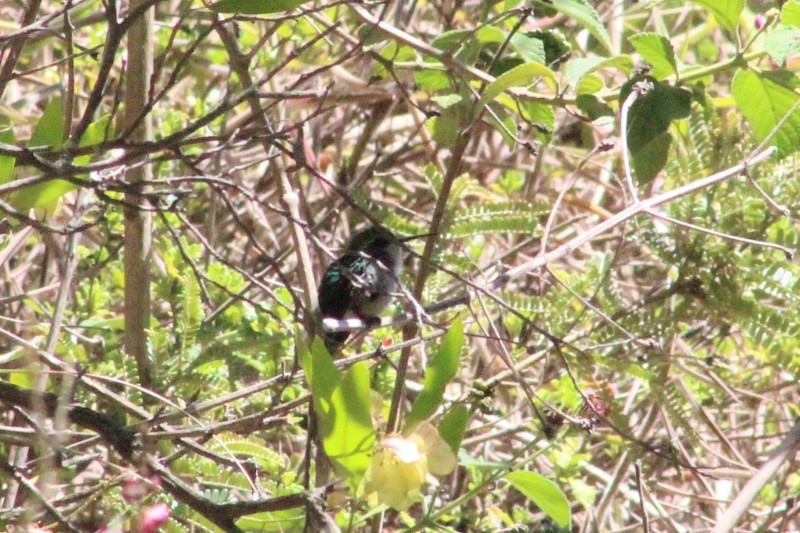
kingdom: Animalia
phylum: Chordata
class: Aves
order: Apodiformes
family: Trochilidae
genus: Chlorostilbon
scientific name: Chlorostilbon melanorhynchus
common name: Western emerald
